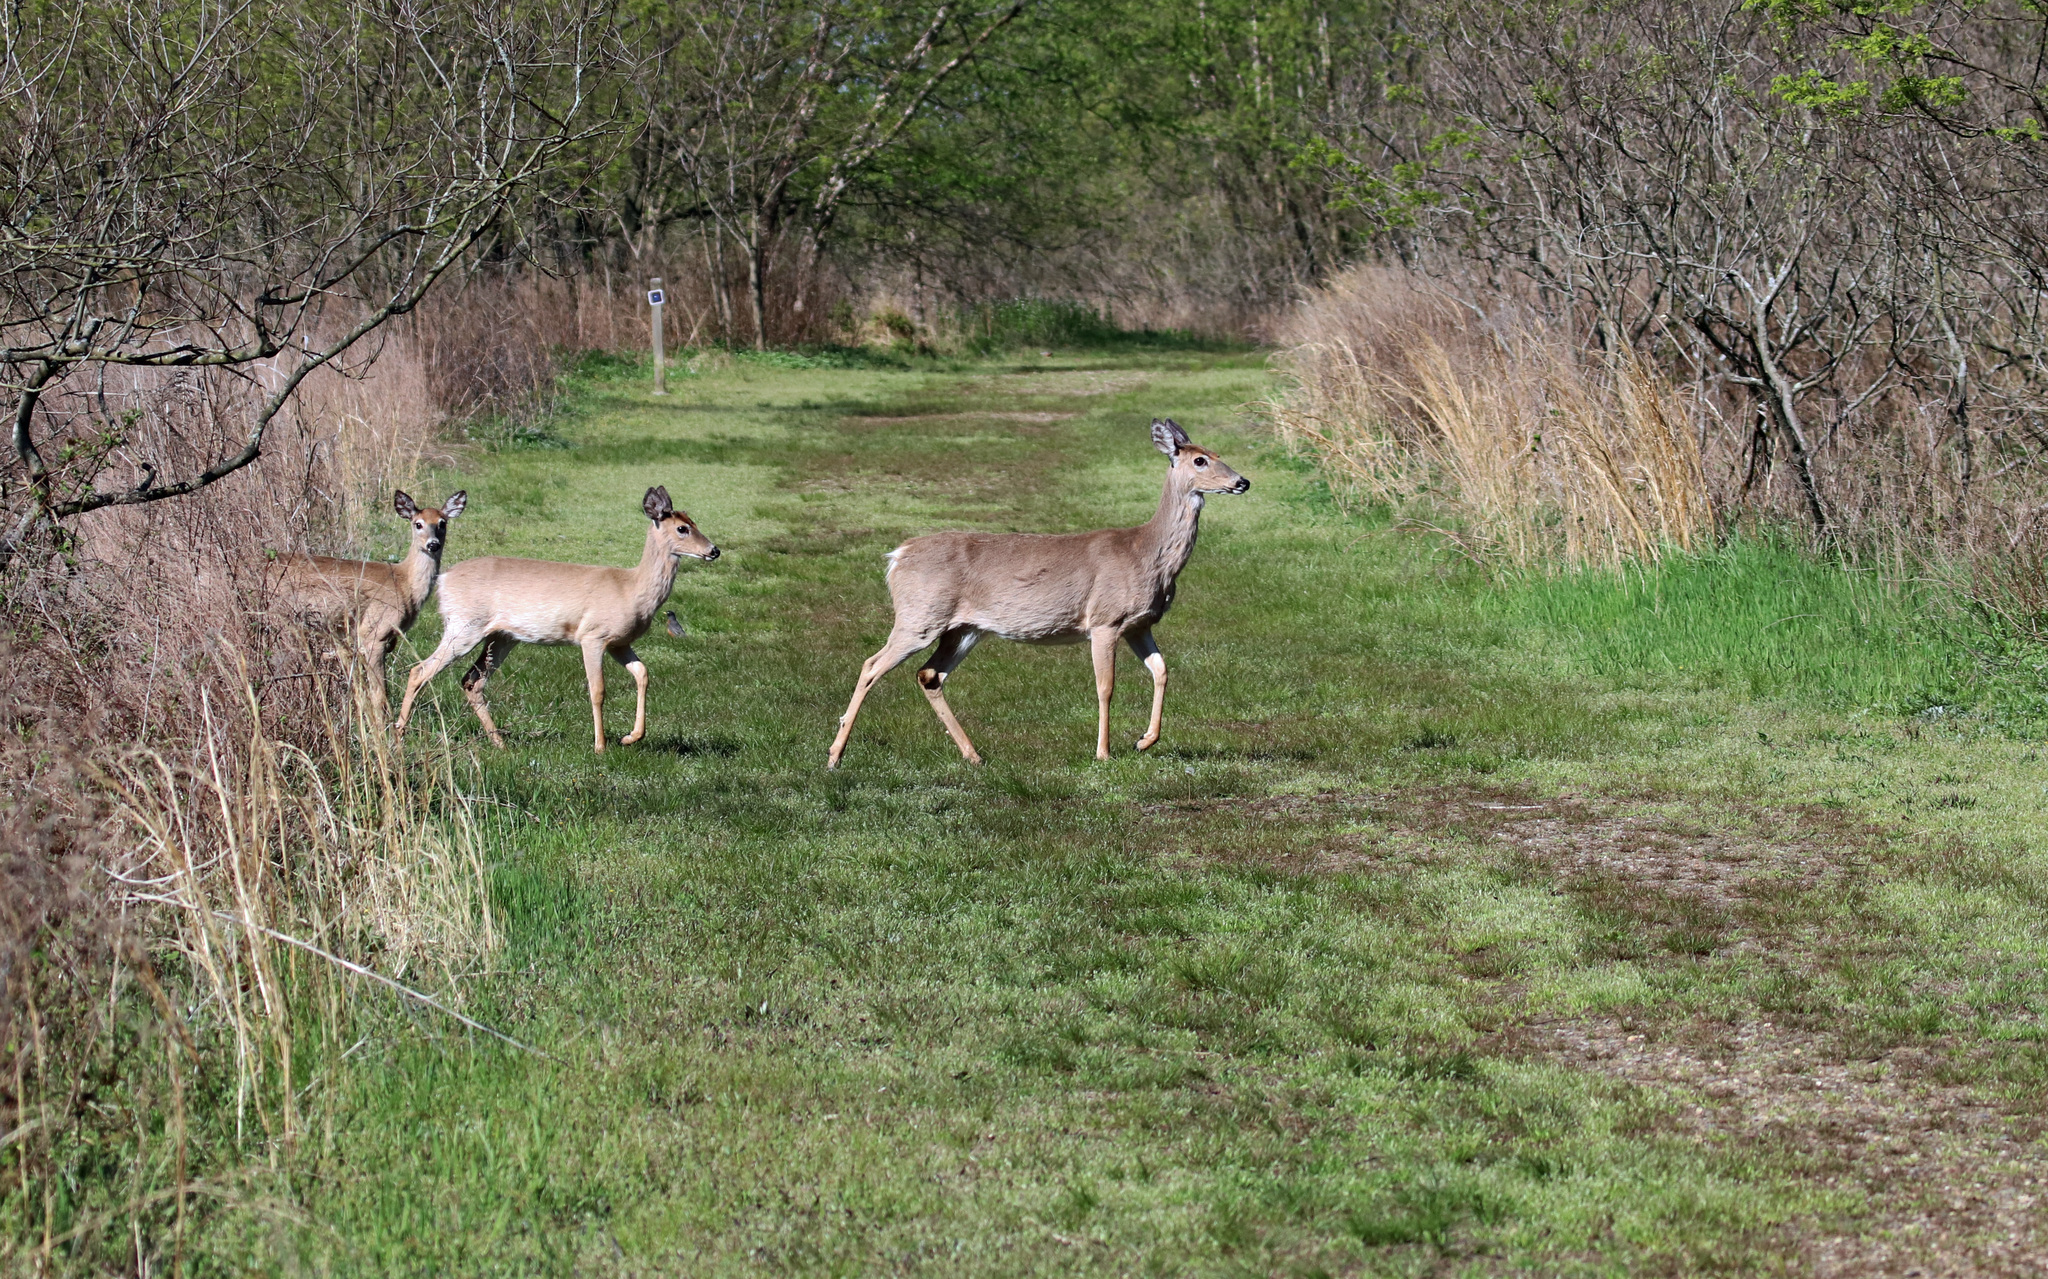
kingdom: Animalia
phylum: Chordata
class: Mammalia
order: Artiodactyla
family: Cervidae
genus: Odocoileus
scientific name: Odocoileus virginianus
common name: White-tailed deer
